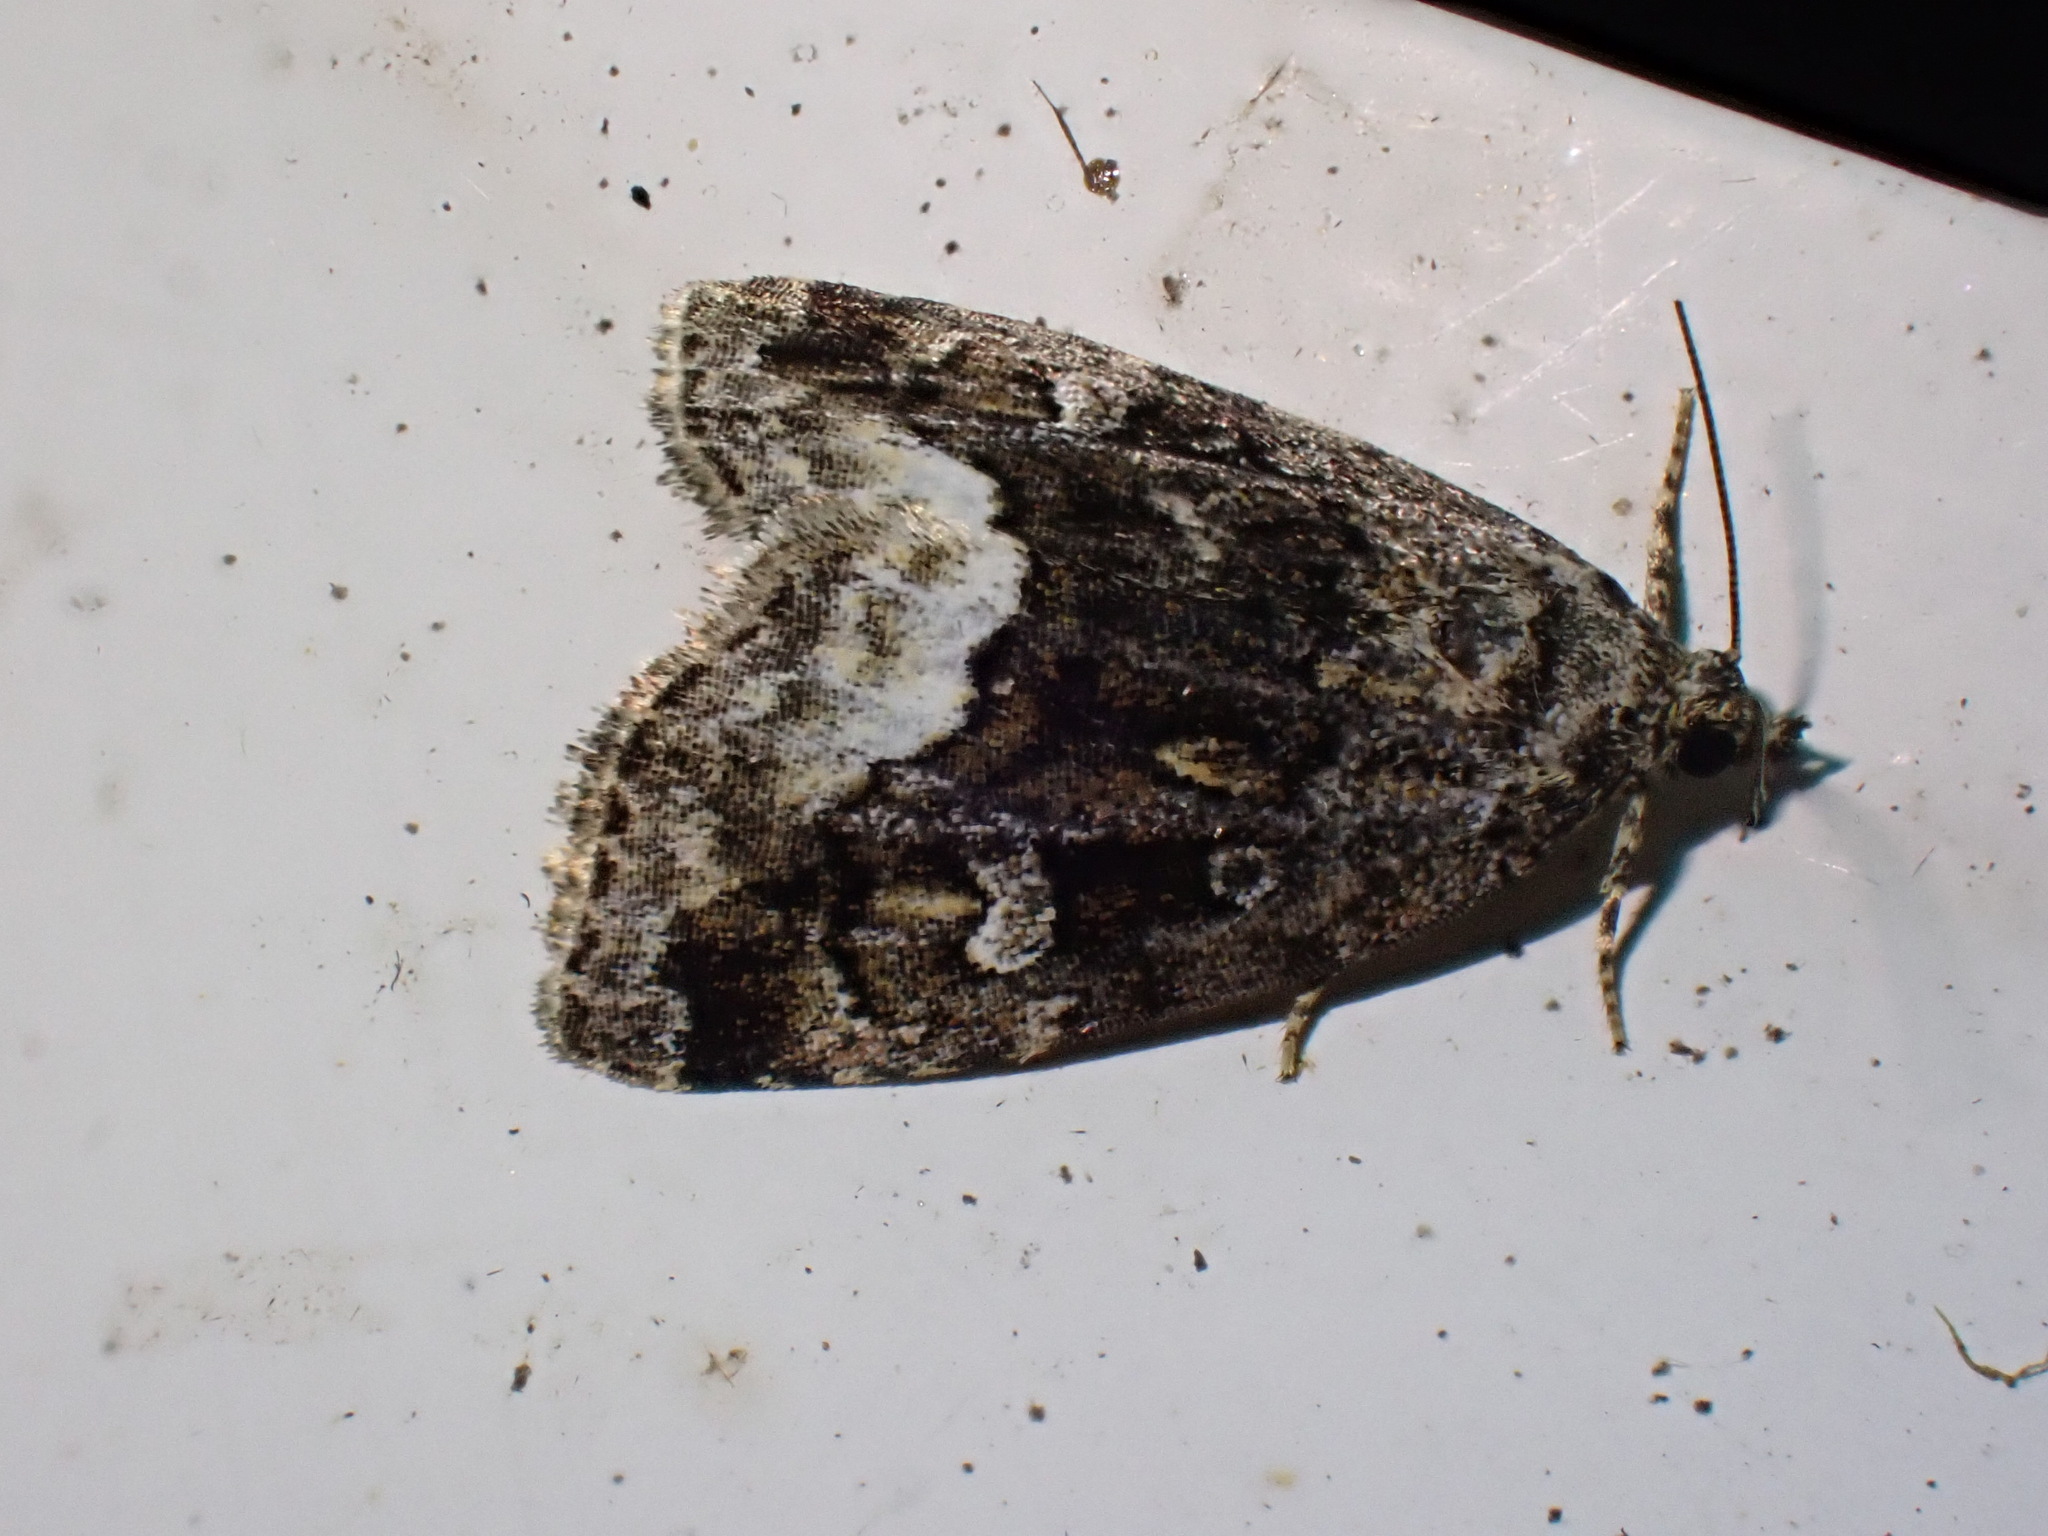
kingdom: Animalia
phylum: Arthropoda
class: Insecta
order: Lepidoptera
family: Noctuidae
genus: Deltote
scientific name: Deltote pygarga
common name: Marbled white spot
